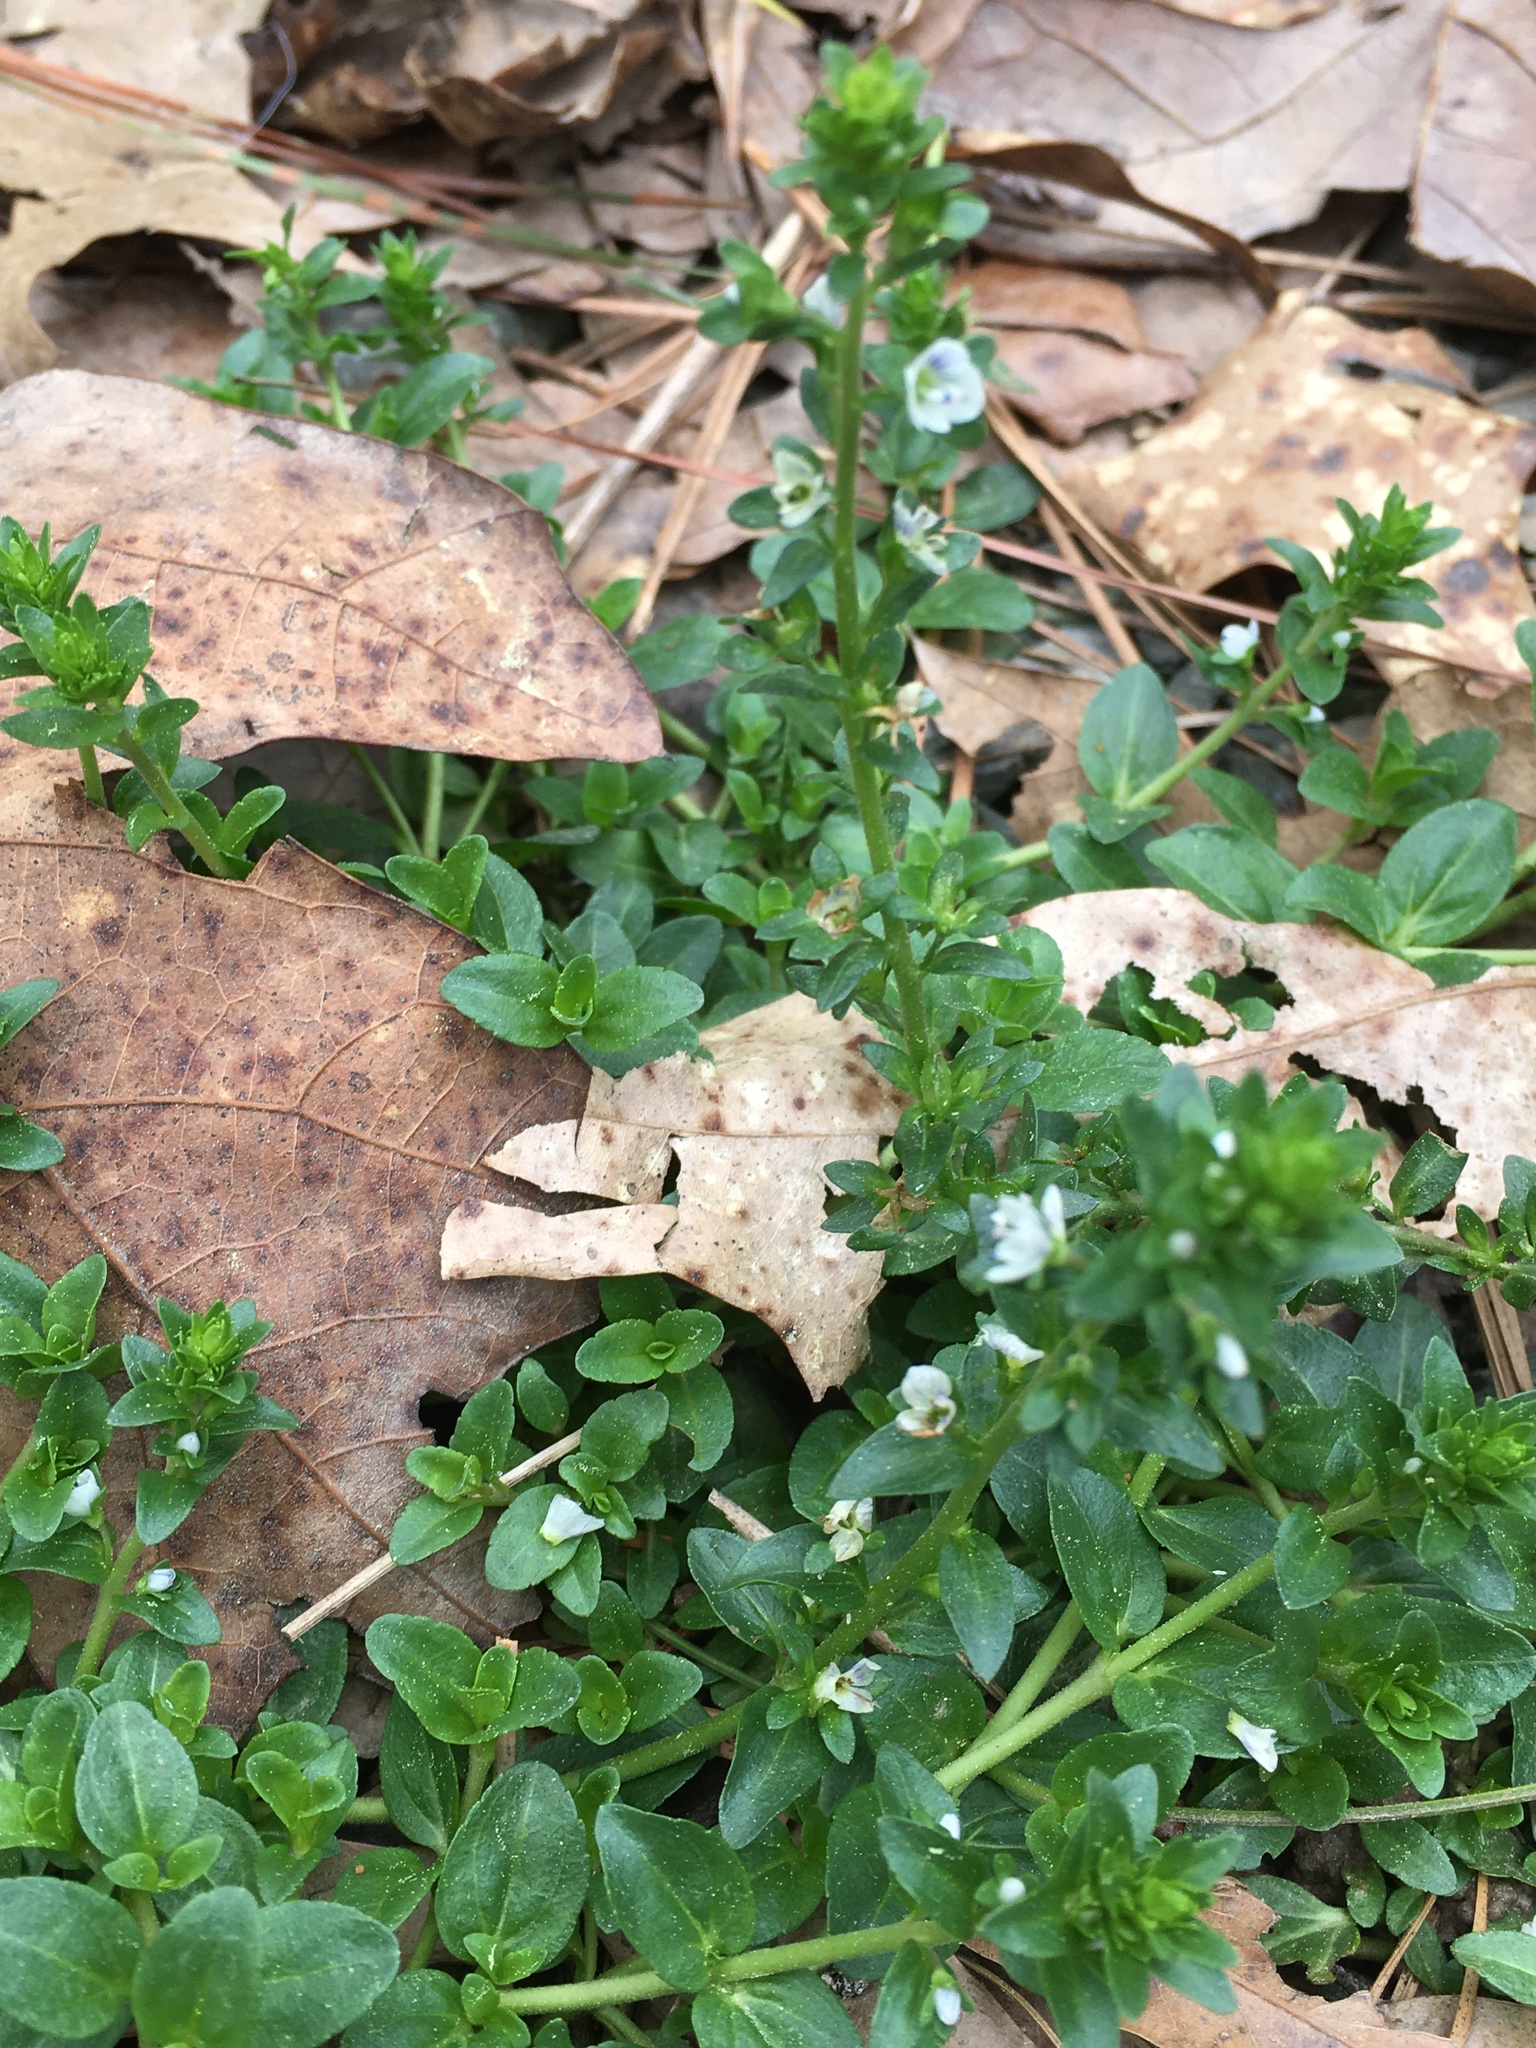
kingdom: Plantae
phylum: Tracheophyta
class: Magnoliopsida
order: Lamiales
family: Plantaginaceae
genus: Veronica
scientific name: Veronica serpyllifolia
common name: Thyme-leaved speedwell
